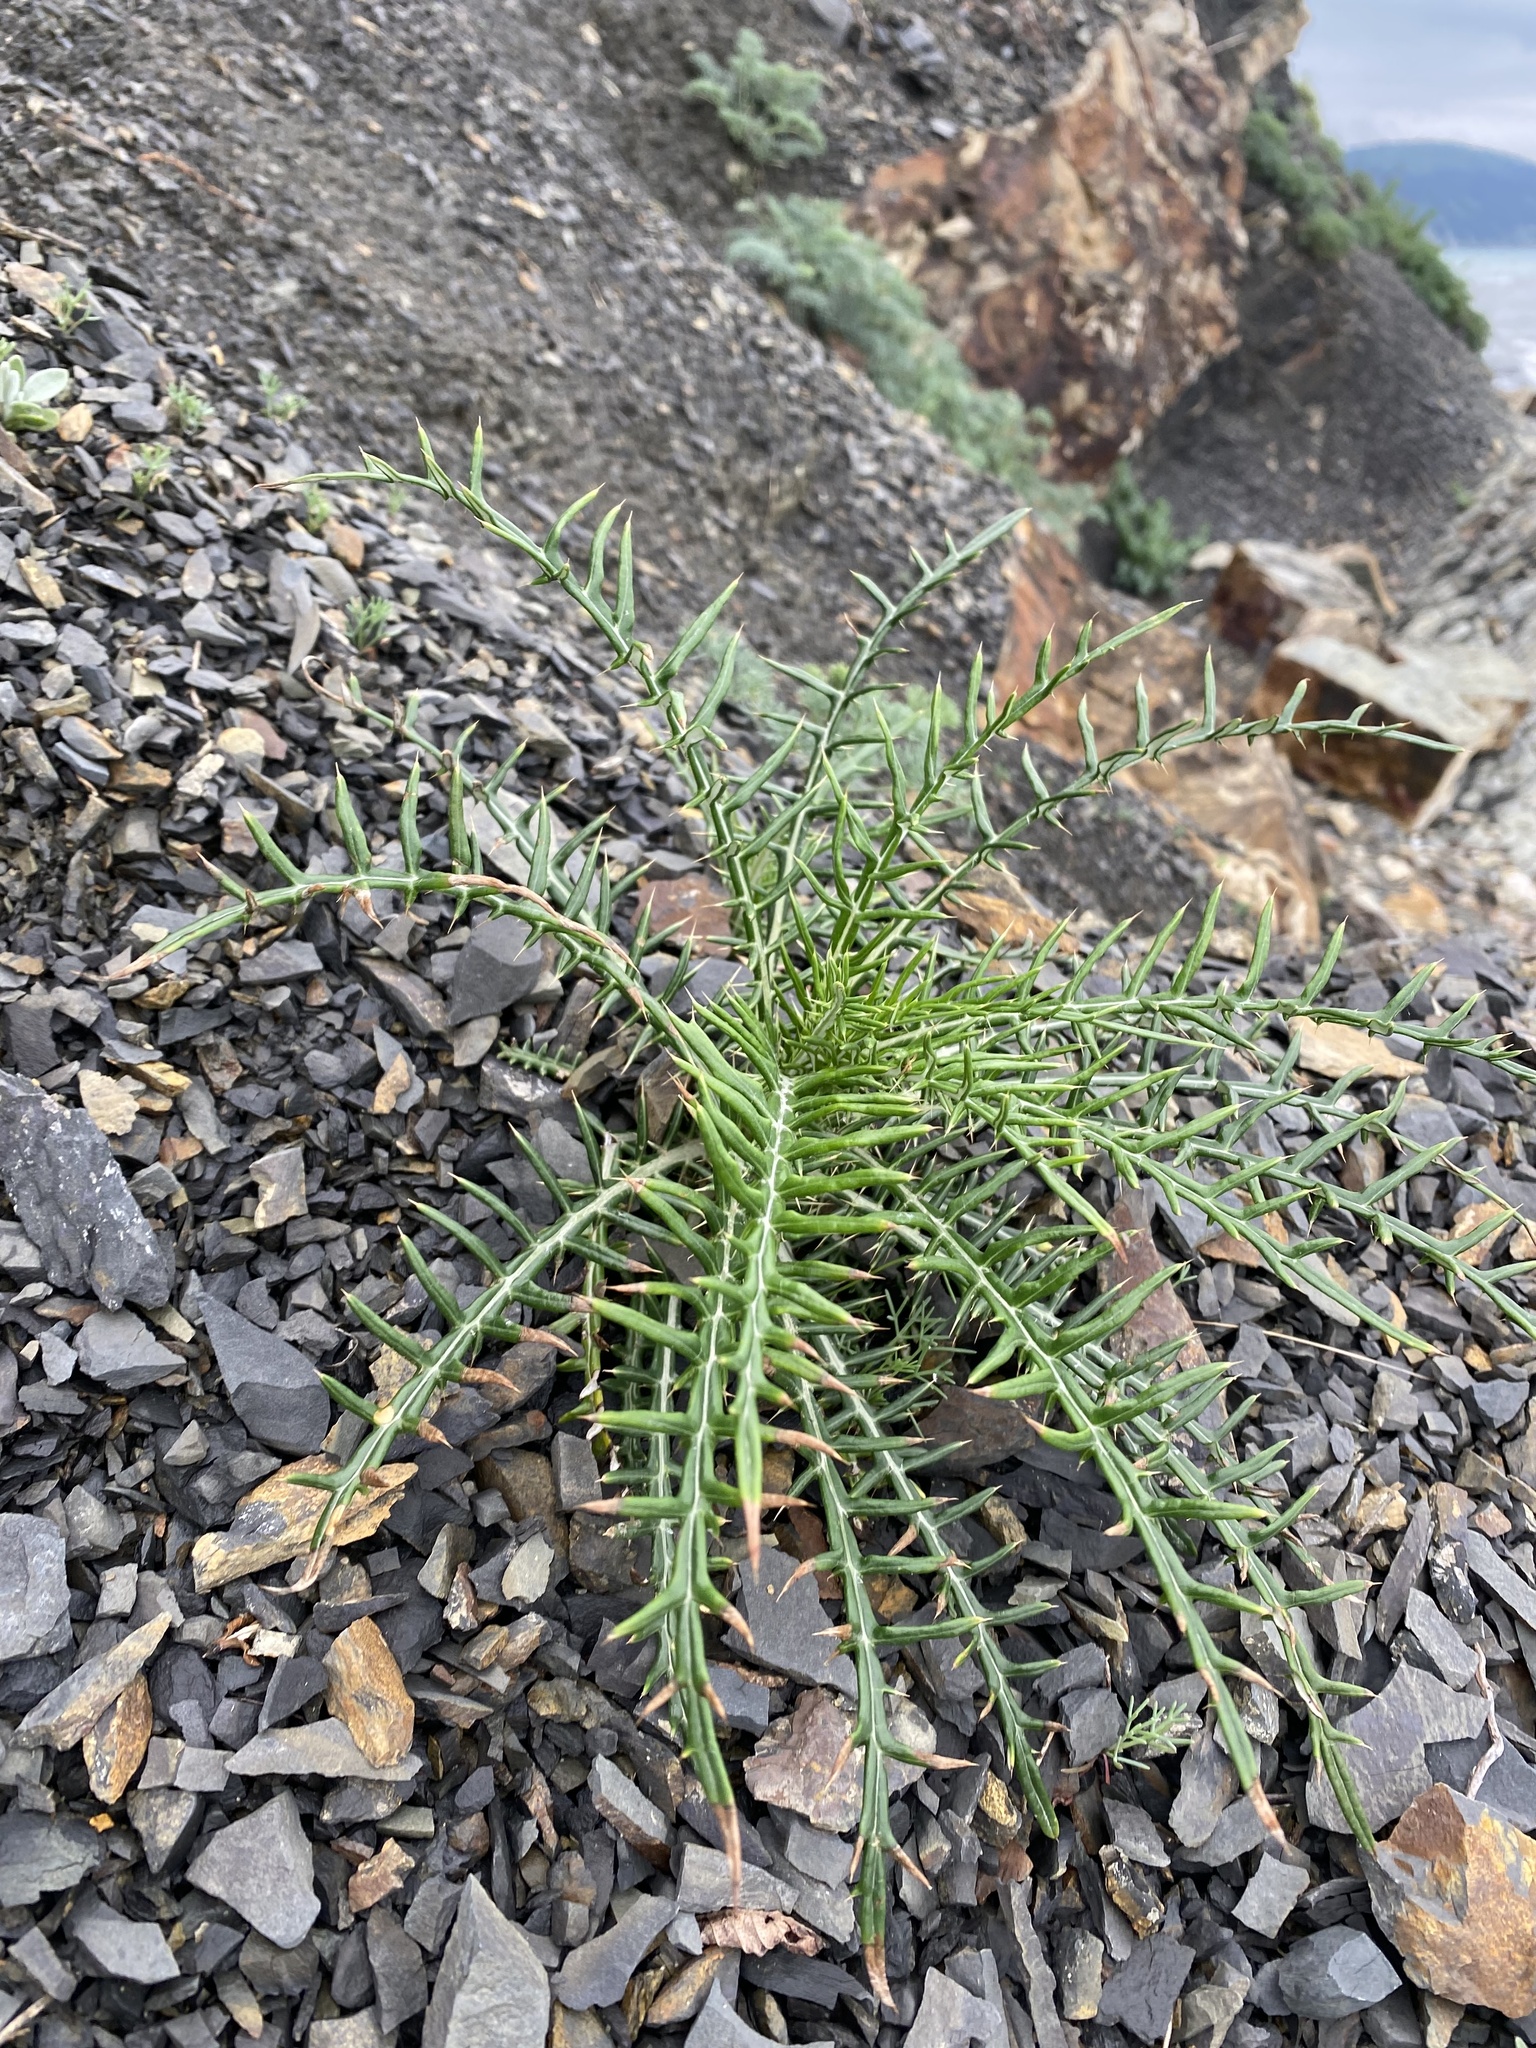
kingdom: Plantae
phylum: Tracheophyta
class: Magnoliopsida
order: Asterales
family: Asteraceae
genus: Ptilostemon
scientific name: Ptilostemon echinocephalus
